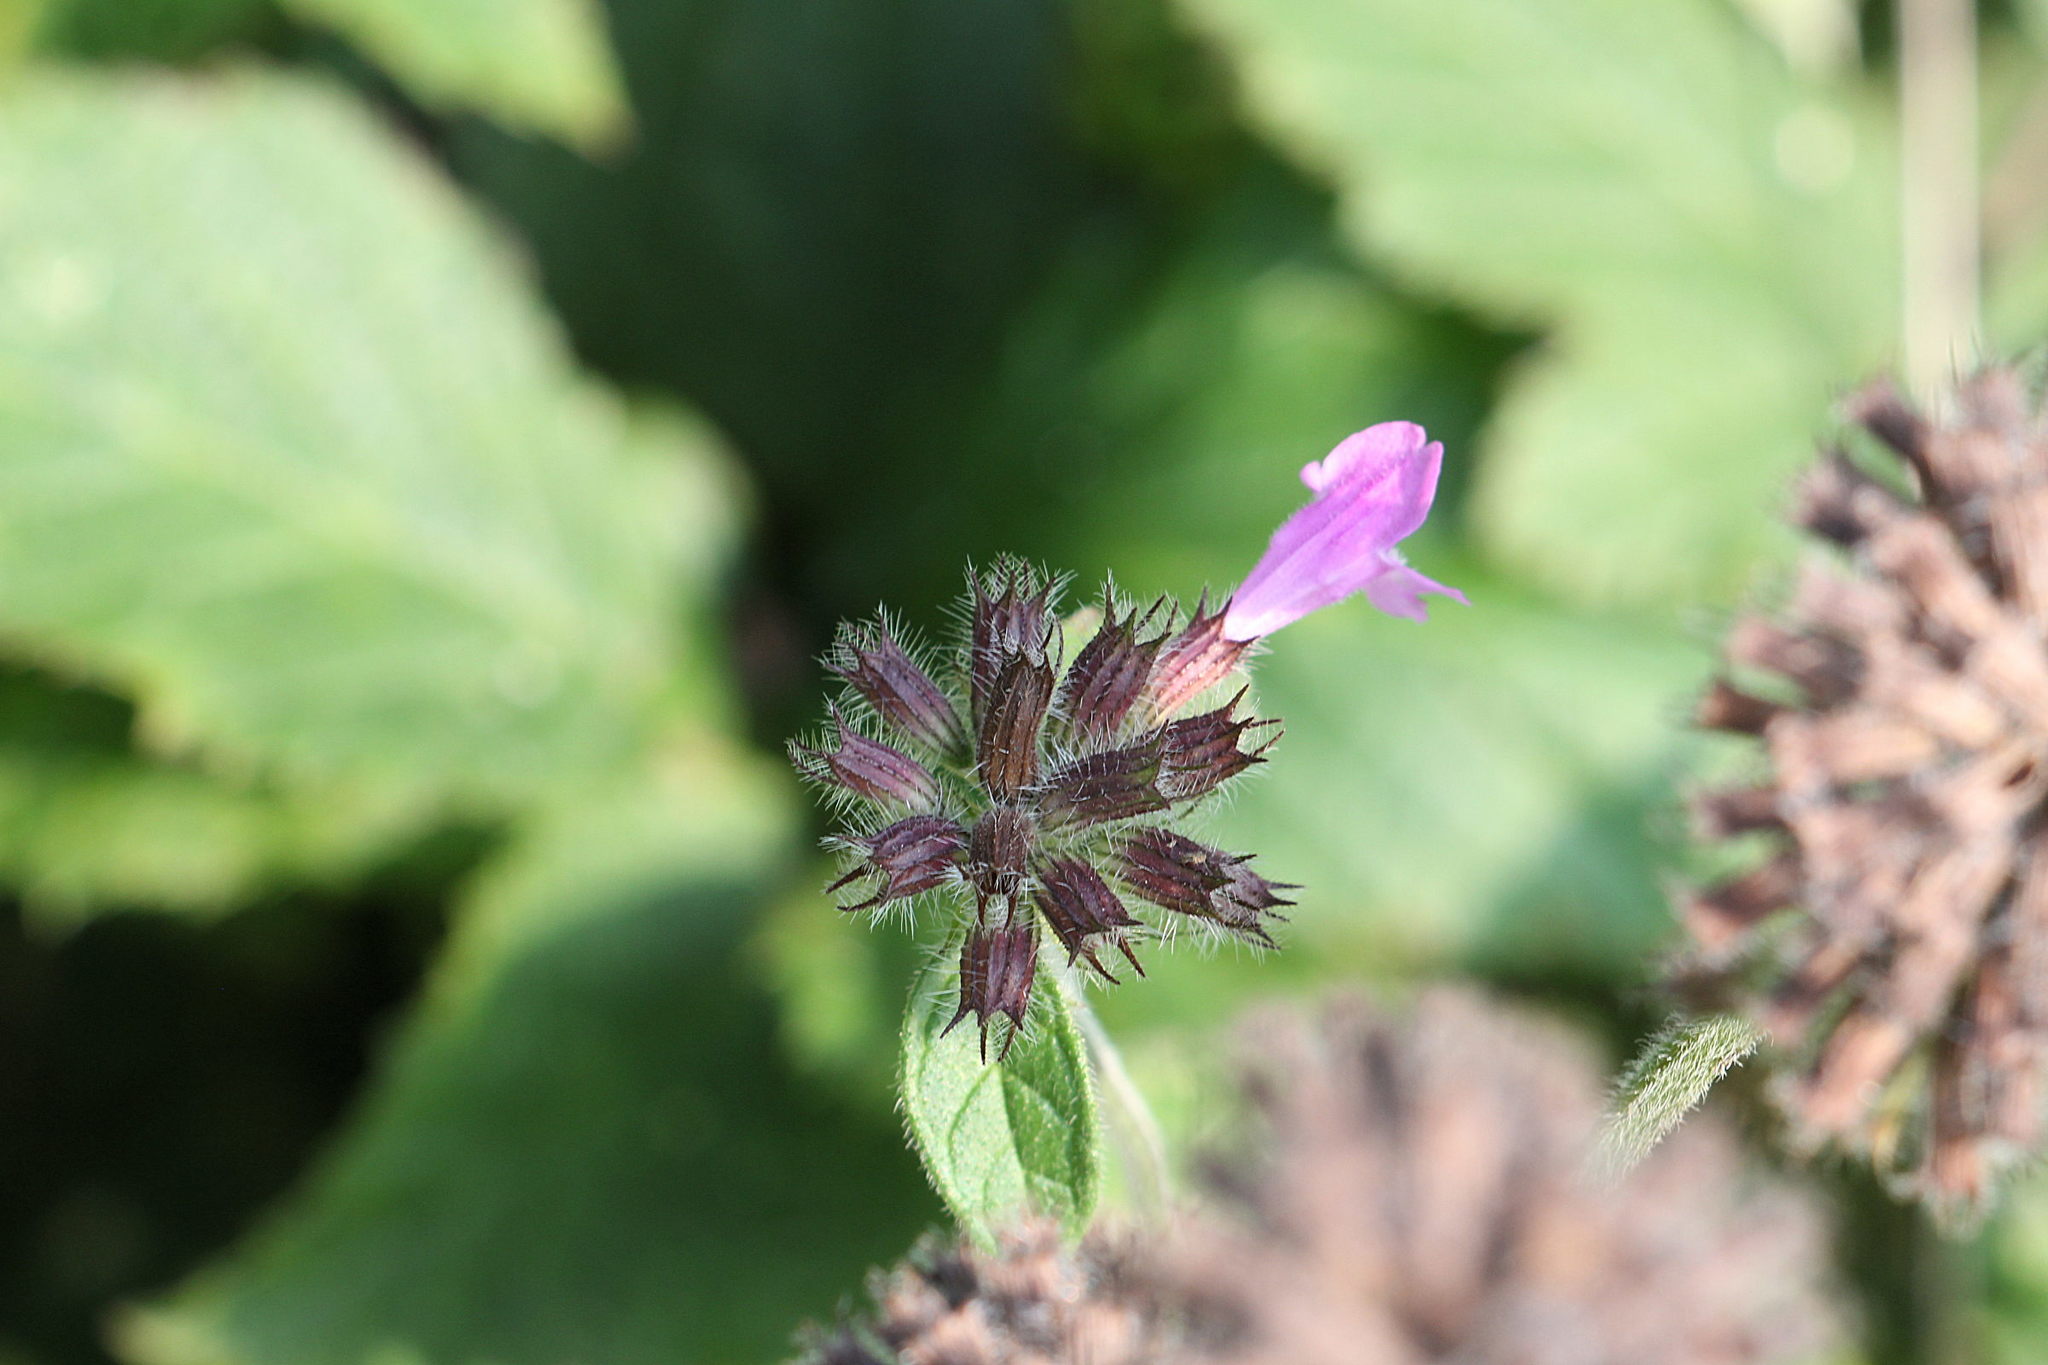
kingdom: Plantae
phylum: Tracheophyta
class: Magnoliopsida
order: Lamiales
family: Lamiaceae
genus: Clinopodium
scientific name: Clinopodium vulgare
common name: Wild basil
